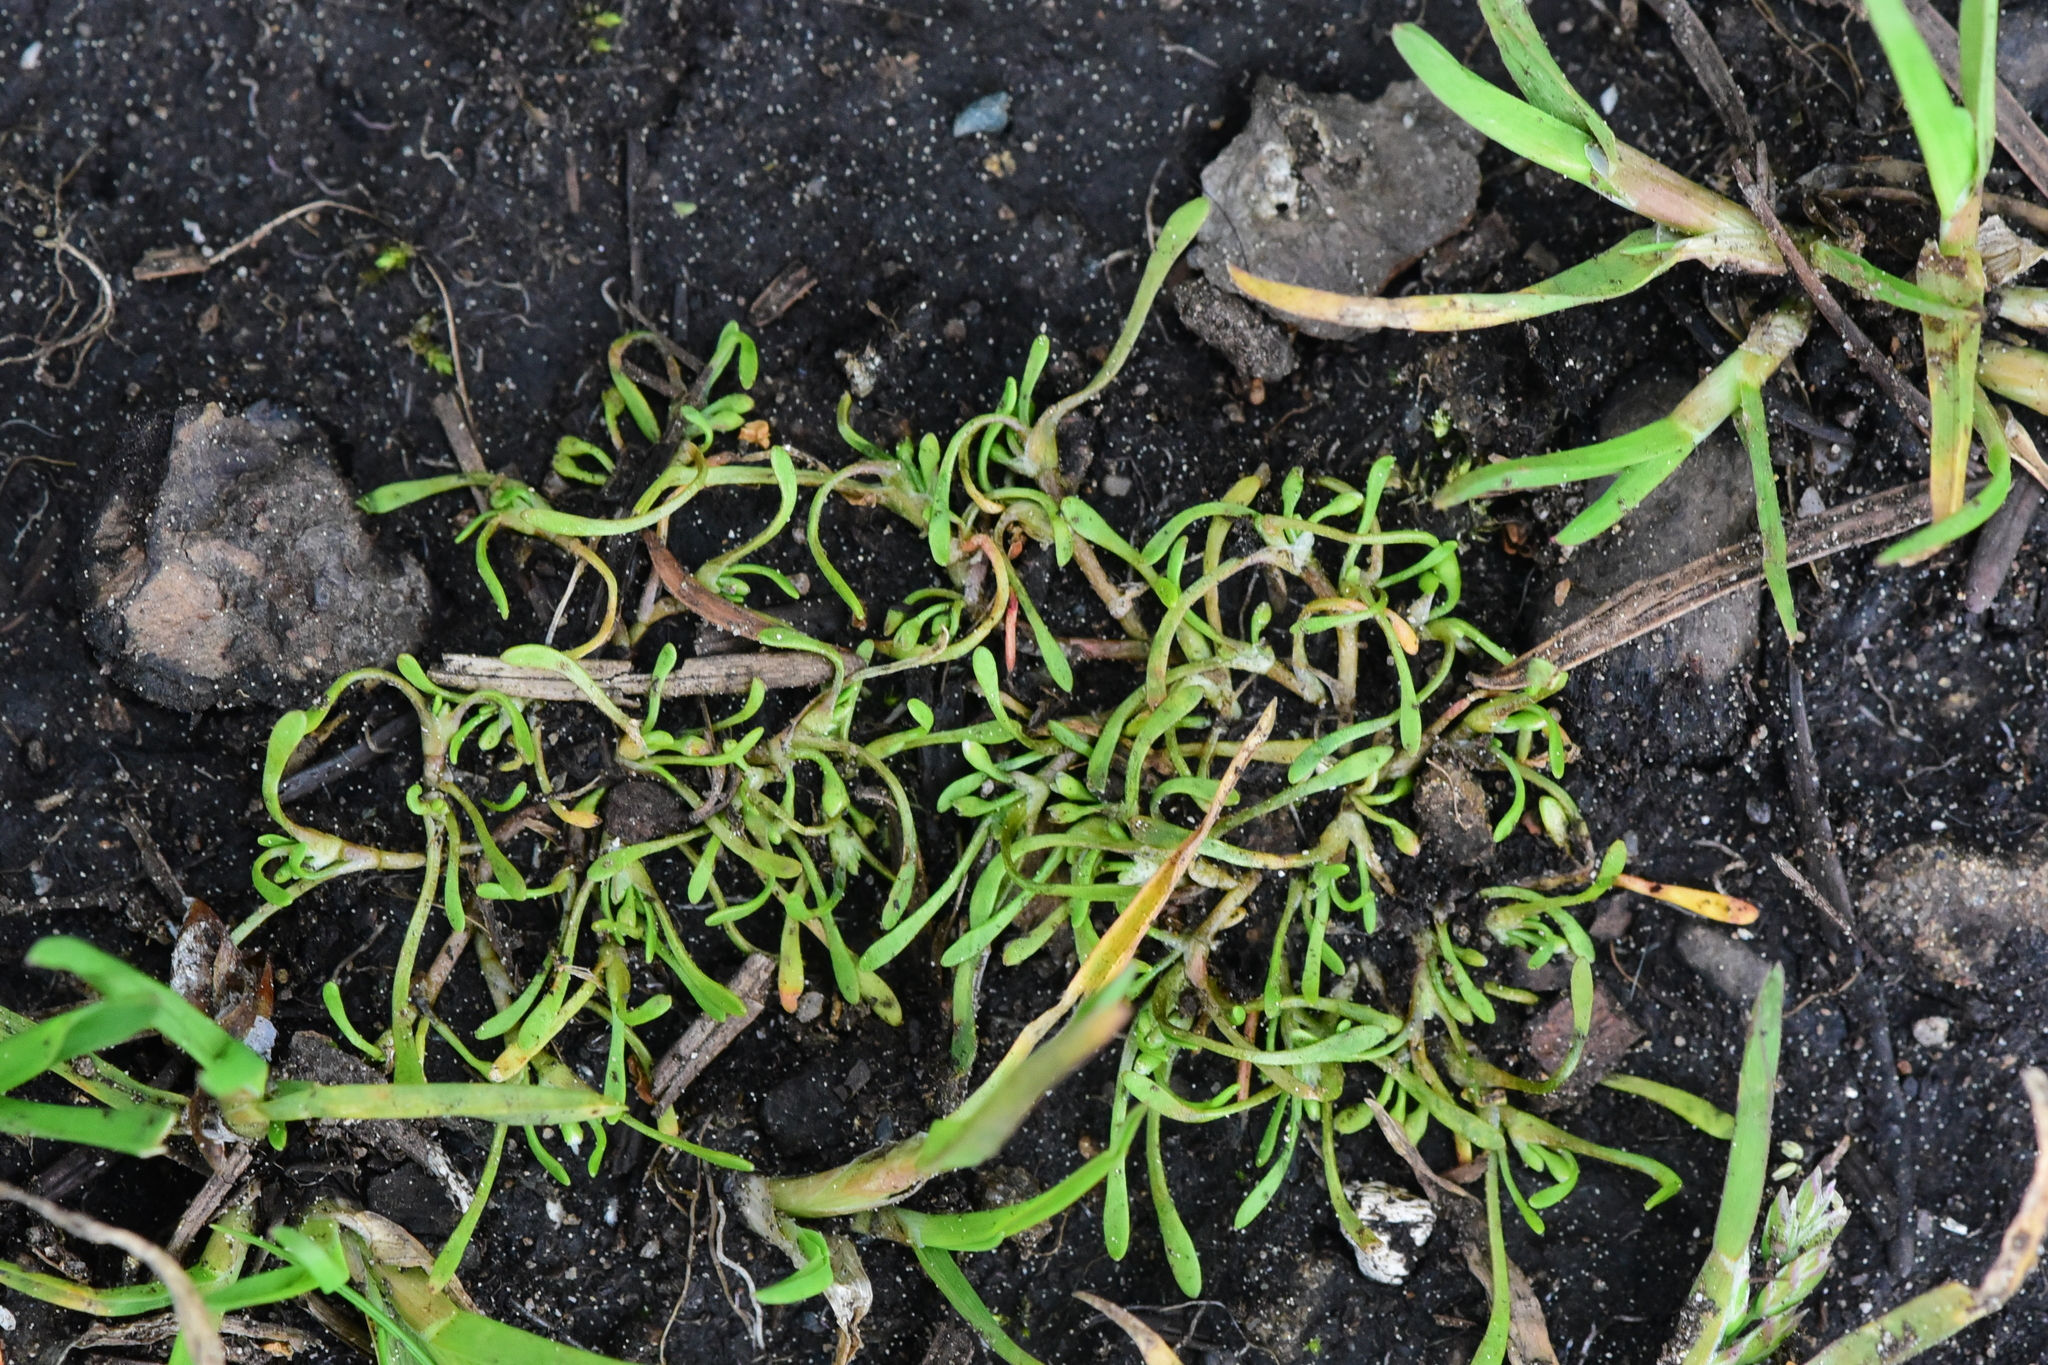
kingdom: Plantae
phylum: Tracheophyta
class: Magnoliopsida
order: Caryophyllales
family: Montiaceae
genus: Montia
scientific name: Montia howellii
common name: Howell's miner's-lettuce
